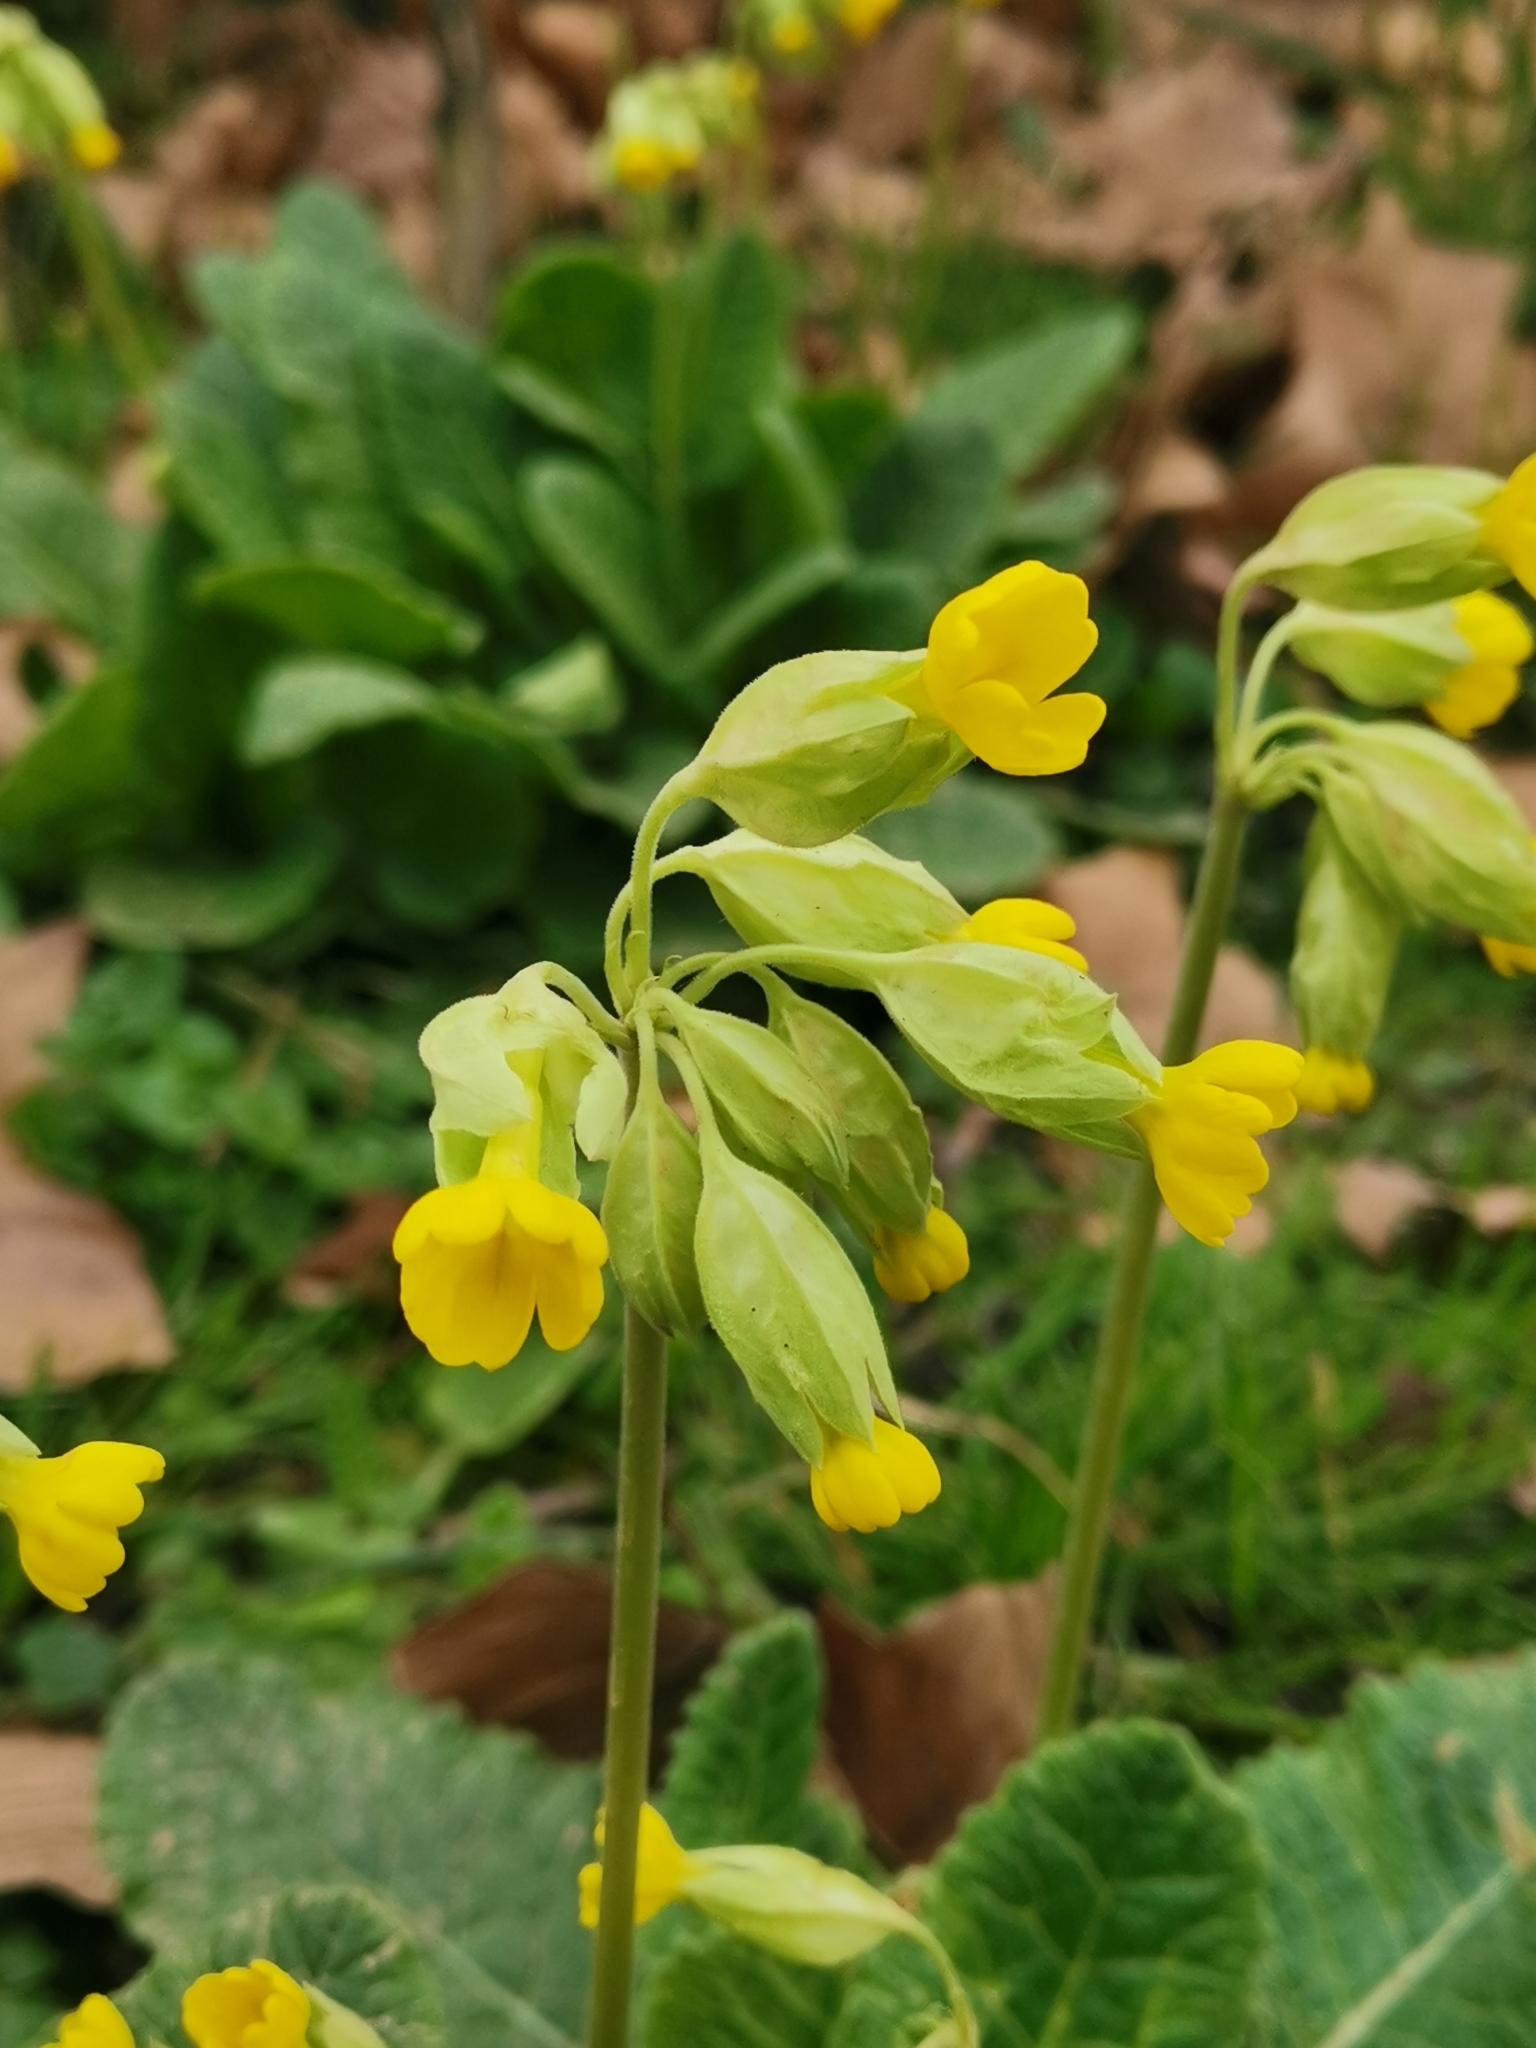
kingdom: Plantae
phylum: Tracheophyta
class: Magnoliopsida
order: Ericales
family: Primulaceae
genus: Primula
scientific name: Primula veris
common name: Cowslip
